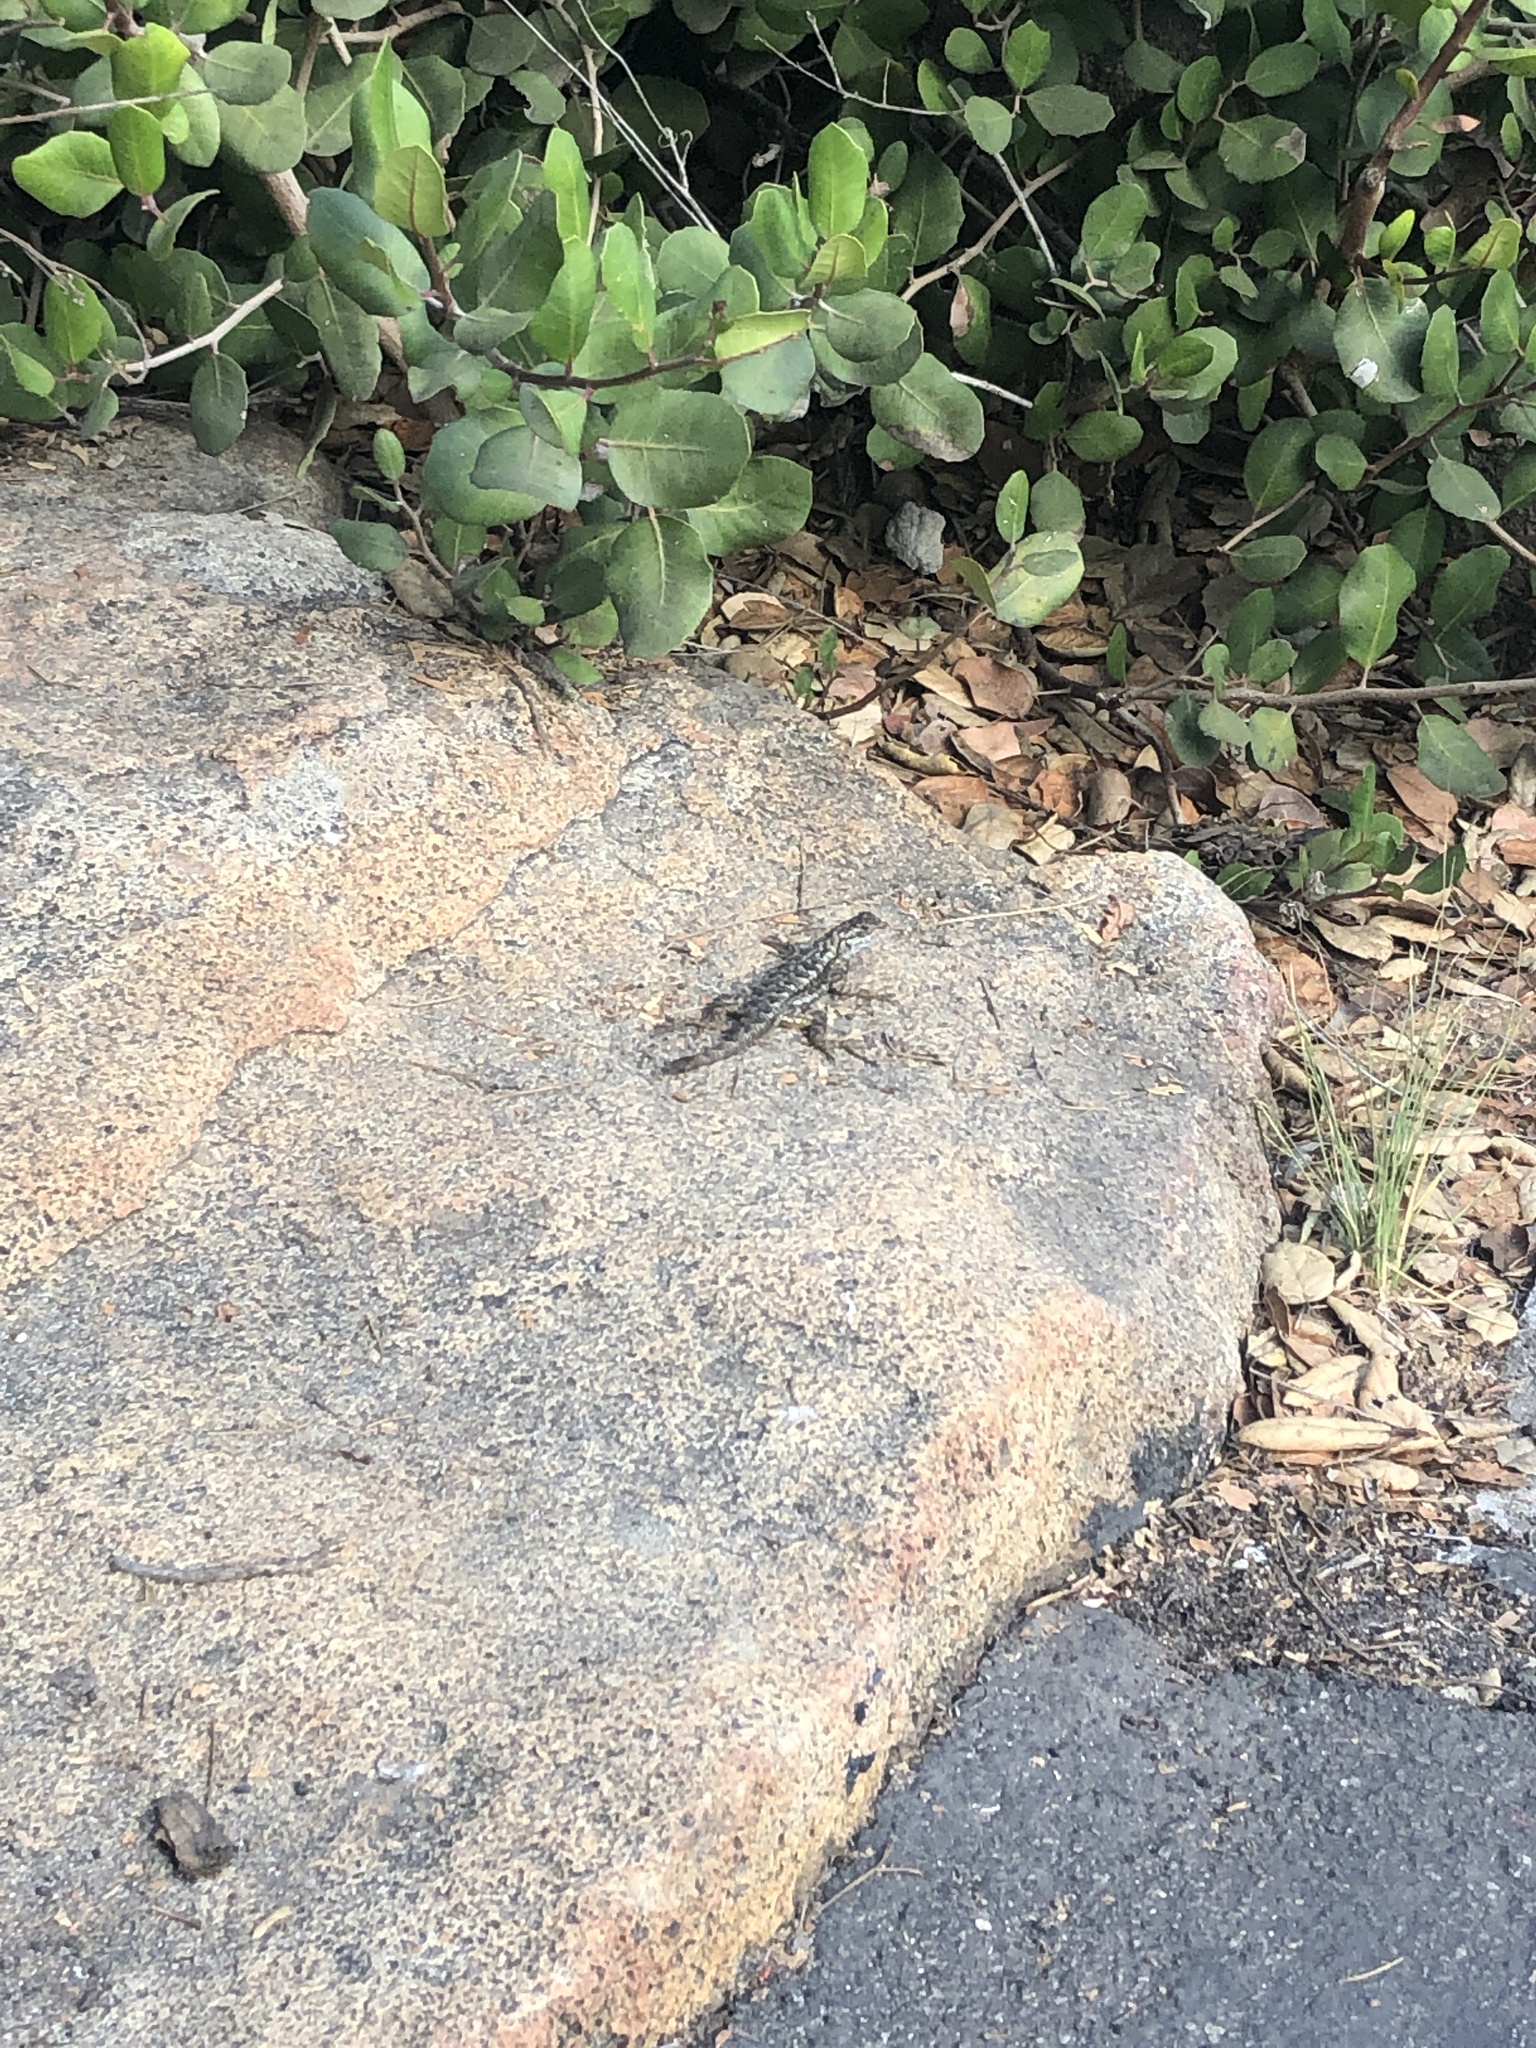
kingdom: Animalia
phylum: Chordata
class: Squamata
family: Phrynosomatidae
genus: Sceloporus
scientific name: Sceloporus occidentalis
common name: Western fence lizard
